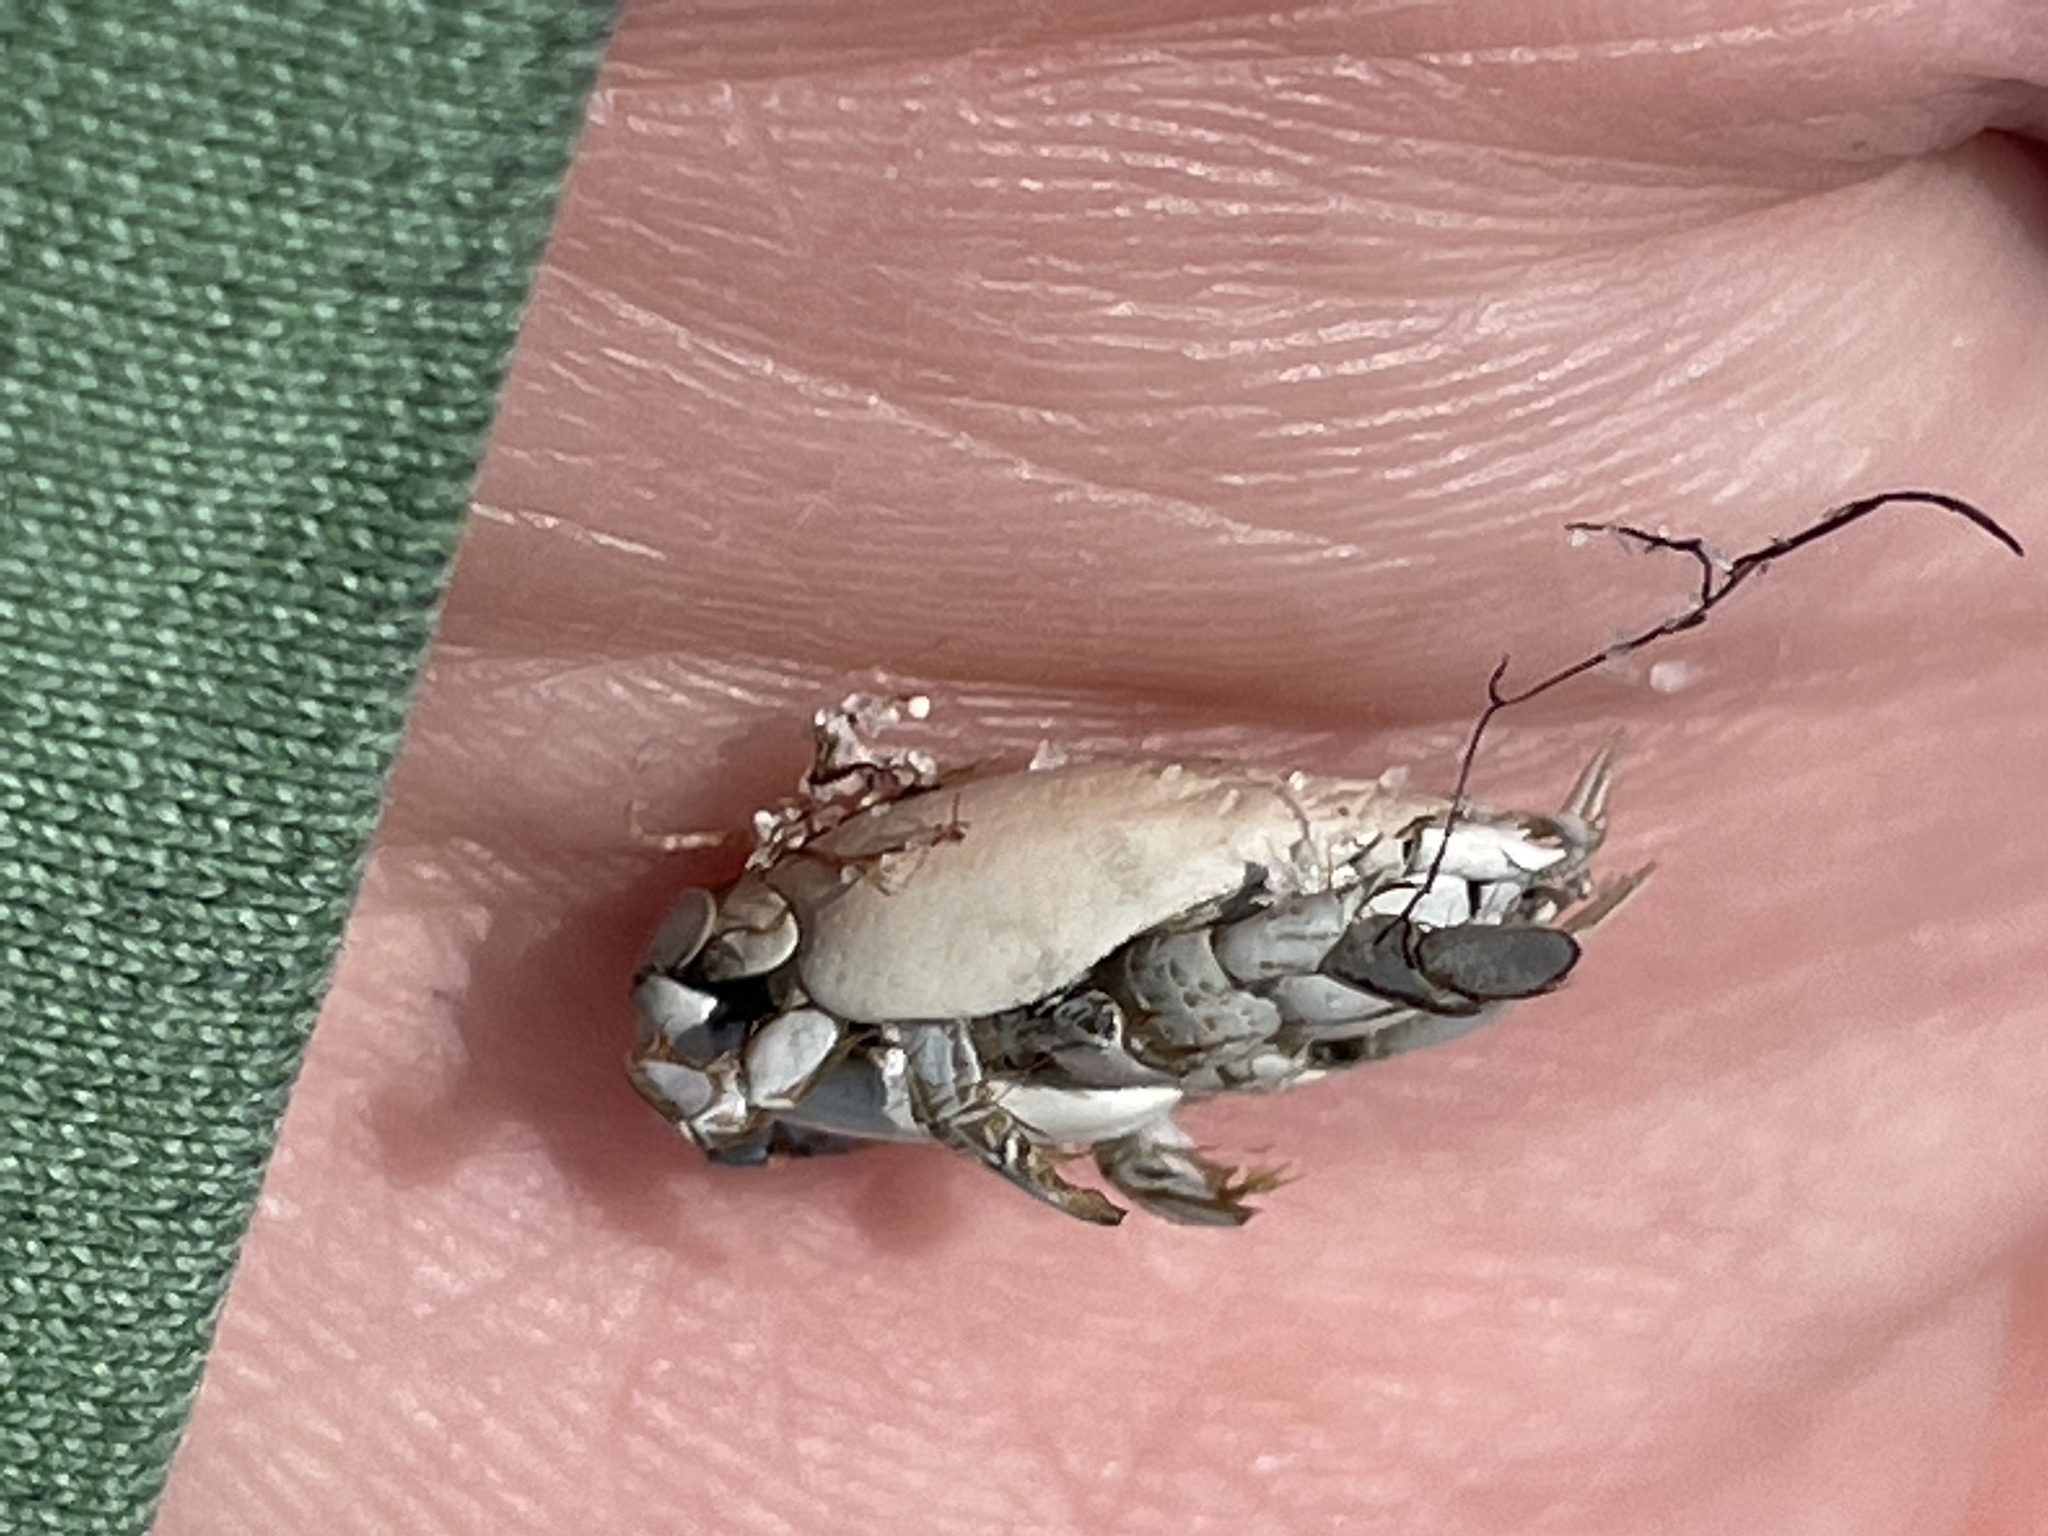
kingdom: Animalia
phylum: Arthropoda
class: Malacostraca
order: Decapoda
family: Hippidae
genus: Emerita
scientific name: Emerita talpoida
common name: Atlantic sand crab
